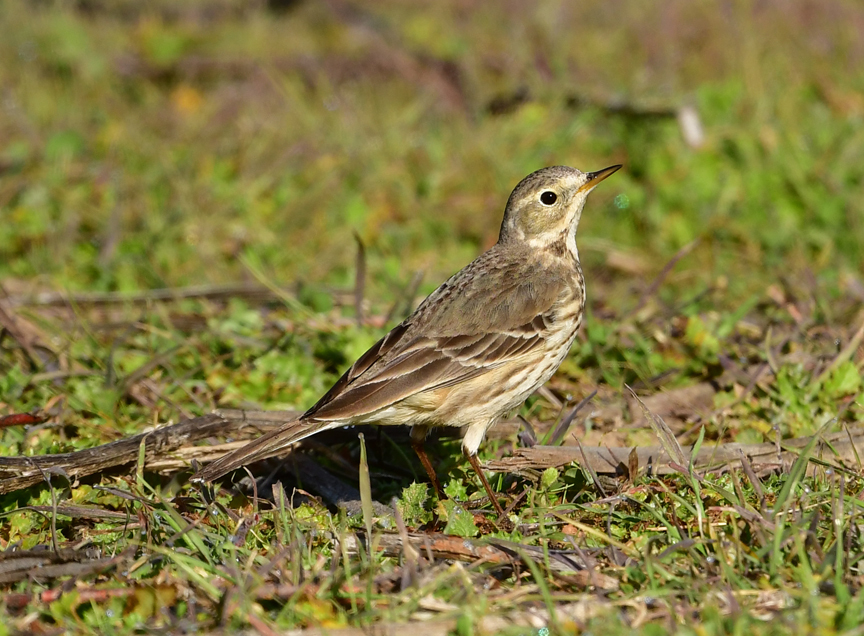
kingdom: Animalia
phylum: Chordata
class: Aves
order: Passeriformes
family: Motacillidae
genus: Anthus
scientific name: Anthus rubescens
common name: Buff-bellied pipit
